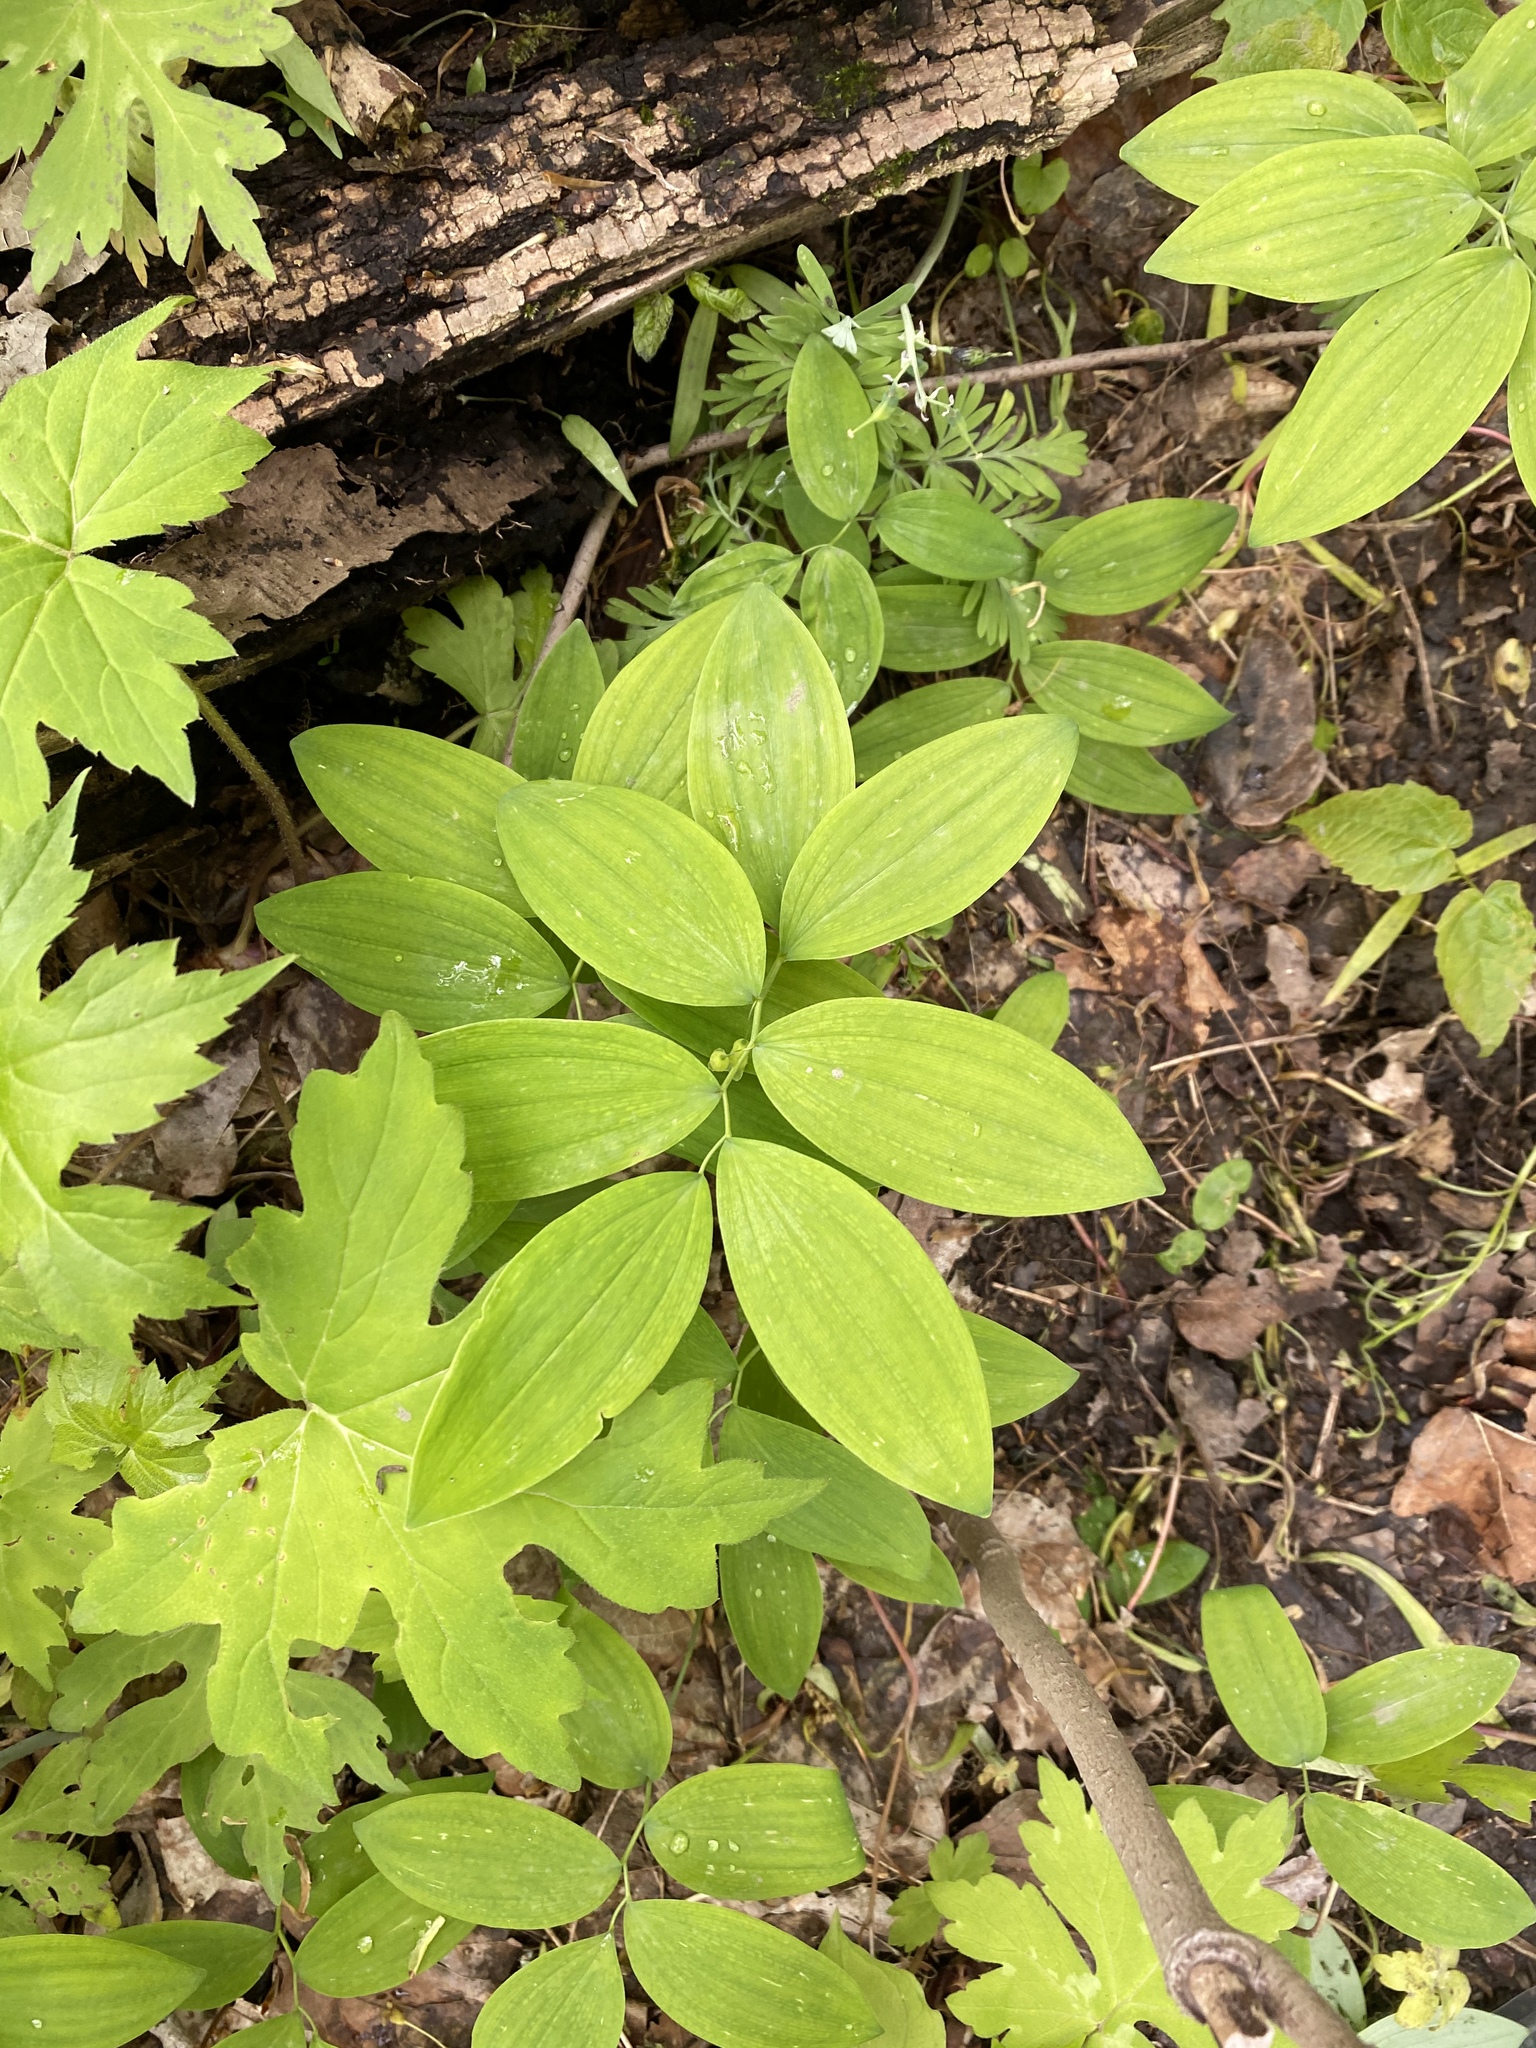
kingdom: Plantae
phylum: Tracheophyta
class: Liliopsida
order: Asparagales
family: Asparagaceae
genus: Polygonatum
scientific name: Polygonatum pubescens
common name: Downy solomon's seal
